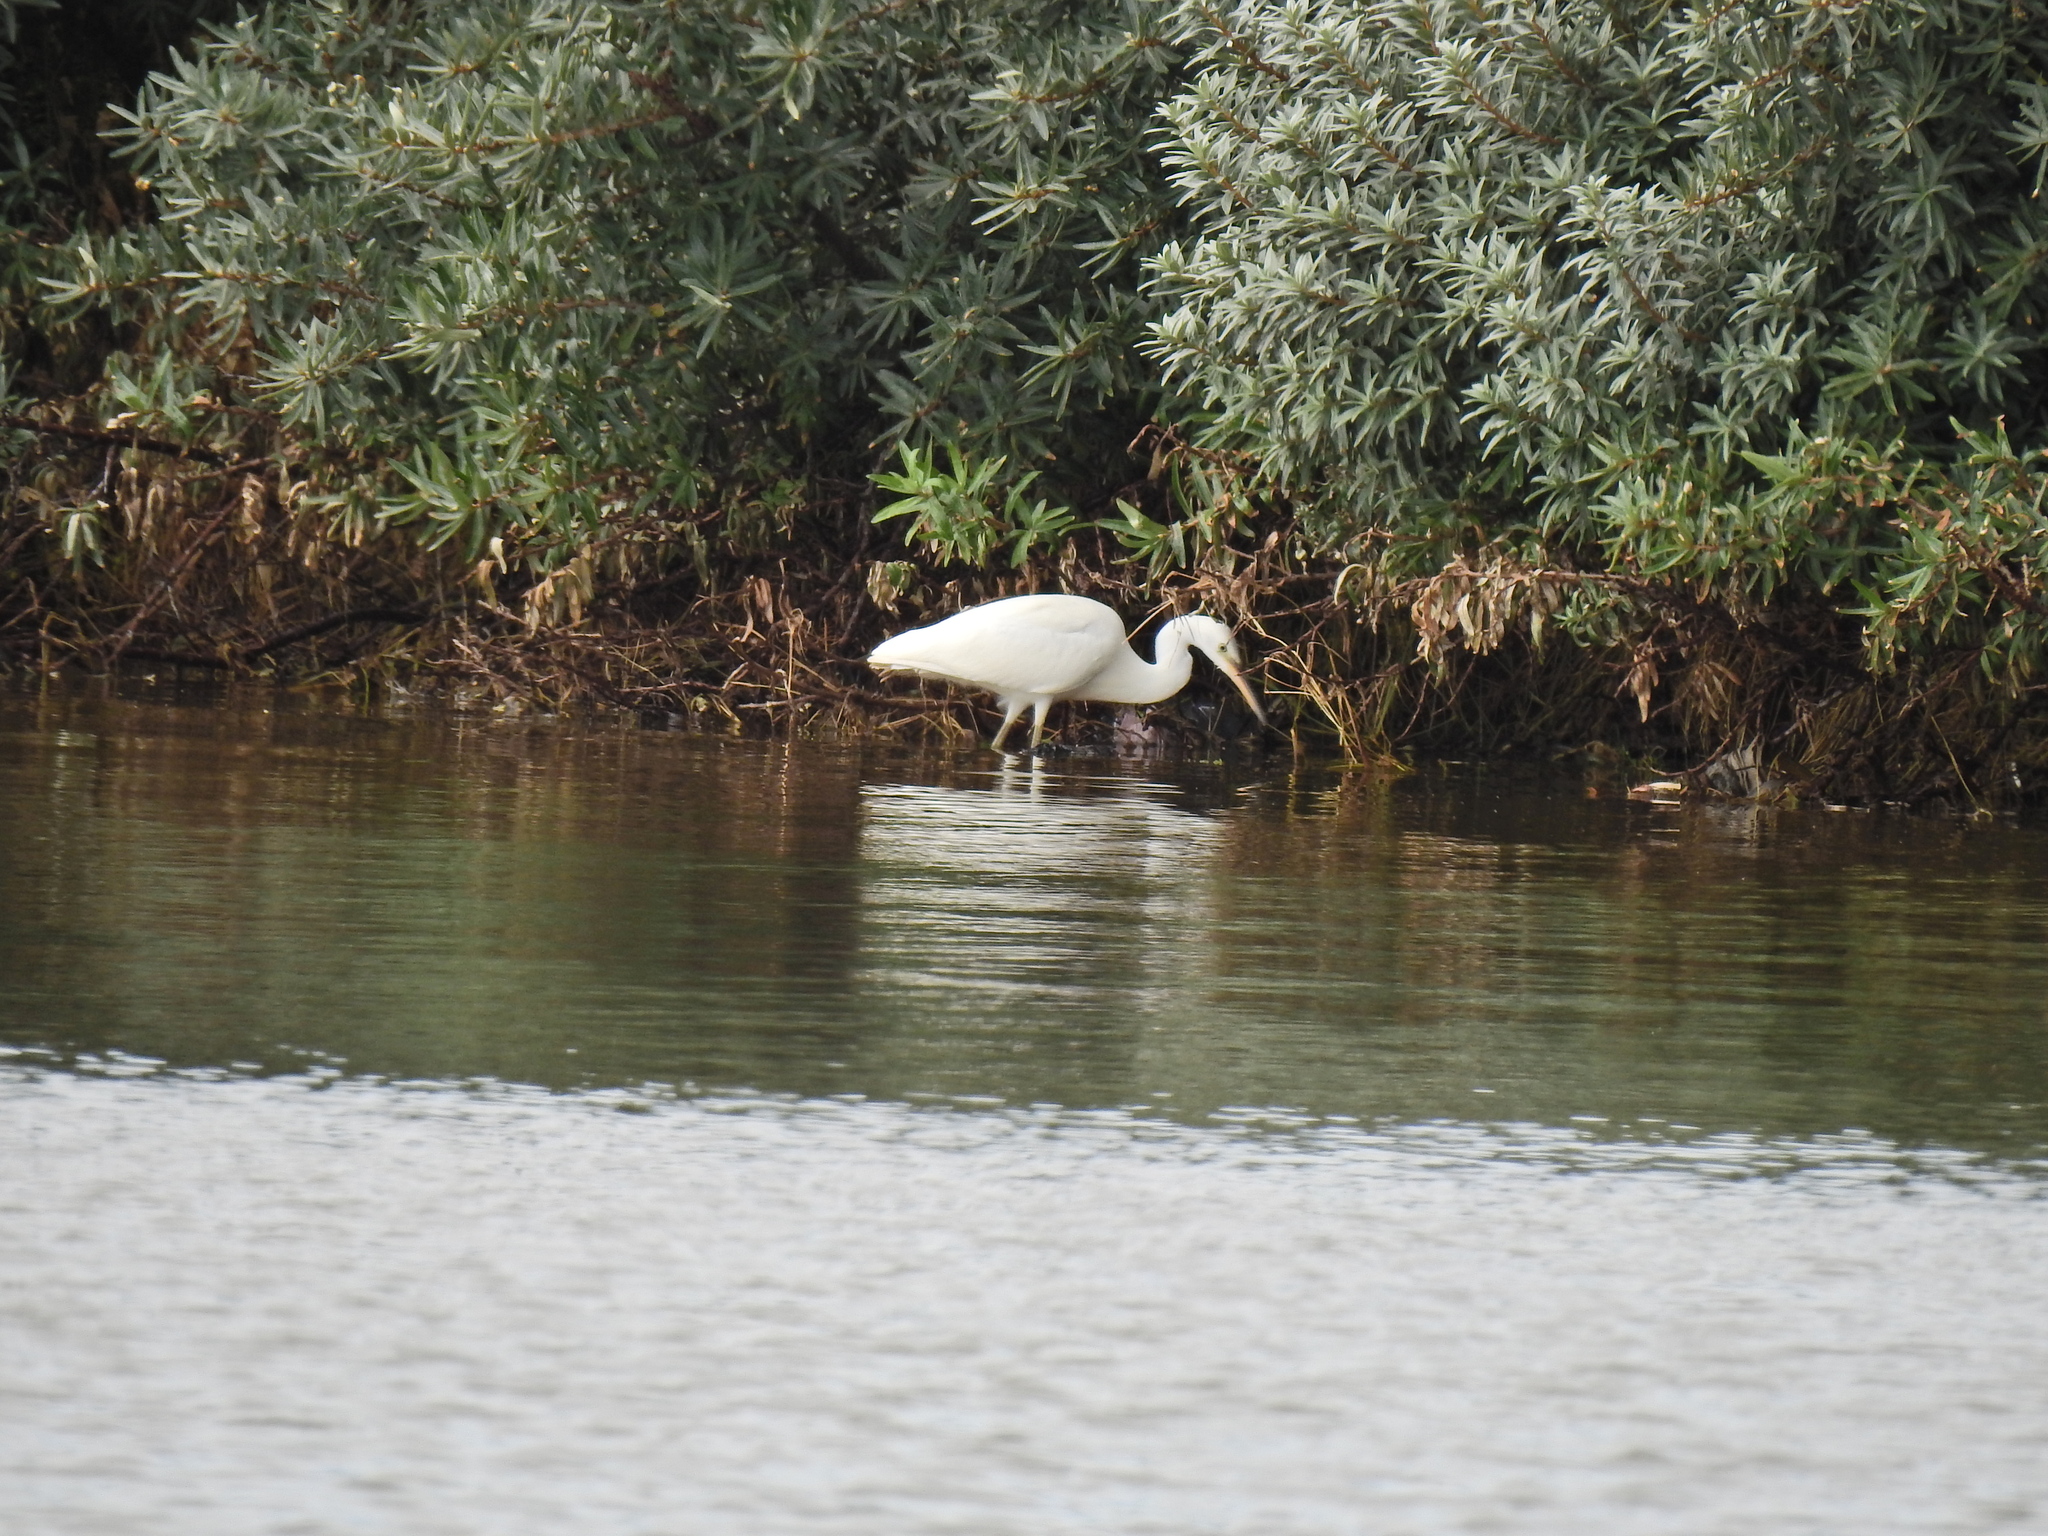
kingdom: Animalia
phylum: Chordata
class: Aves
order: Pelecaniformes
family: Ardeidae
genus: Ardea
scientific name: Ardea alba
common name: Great egret
